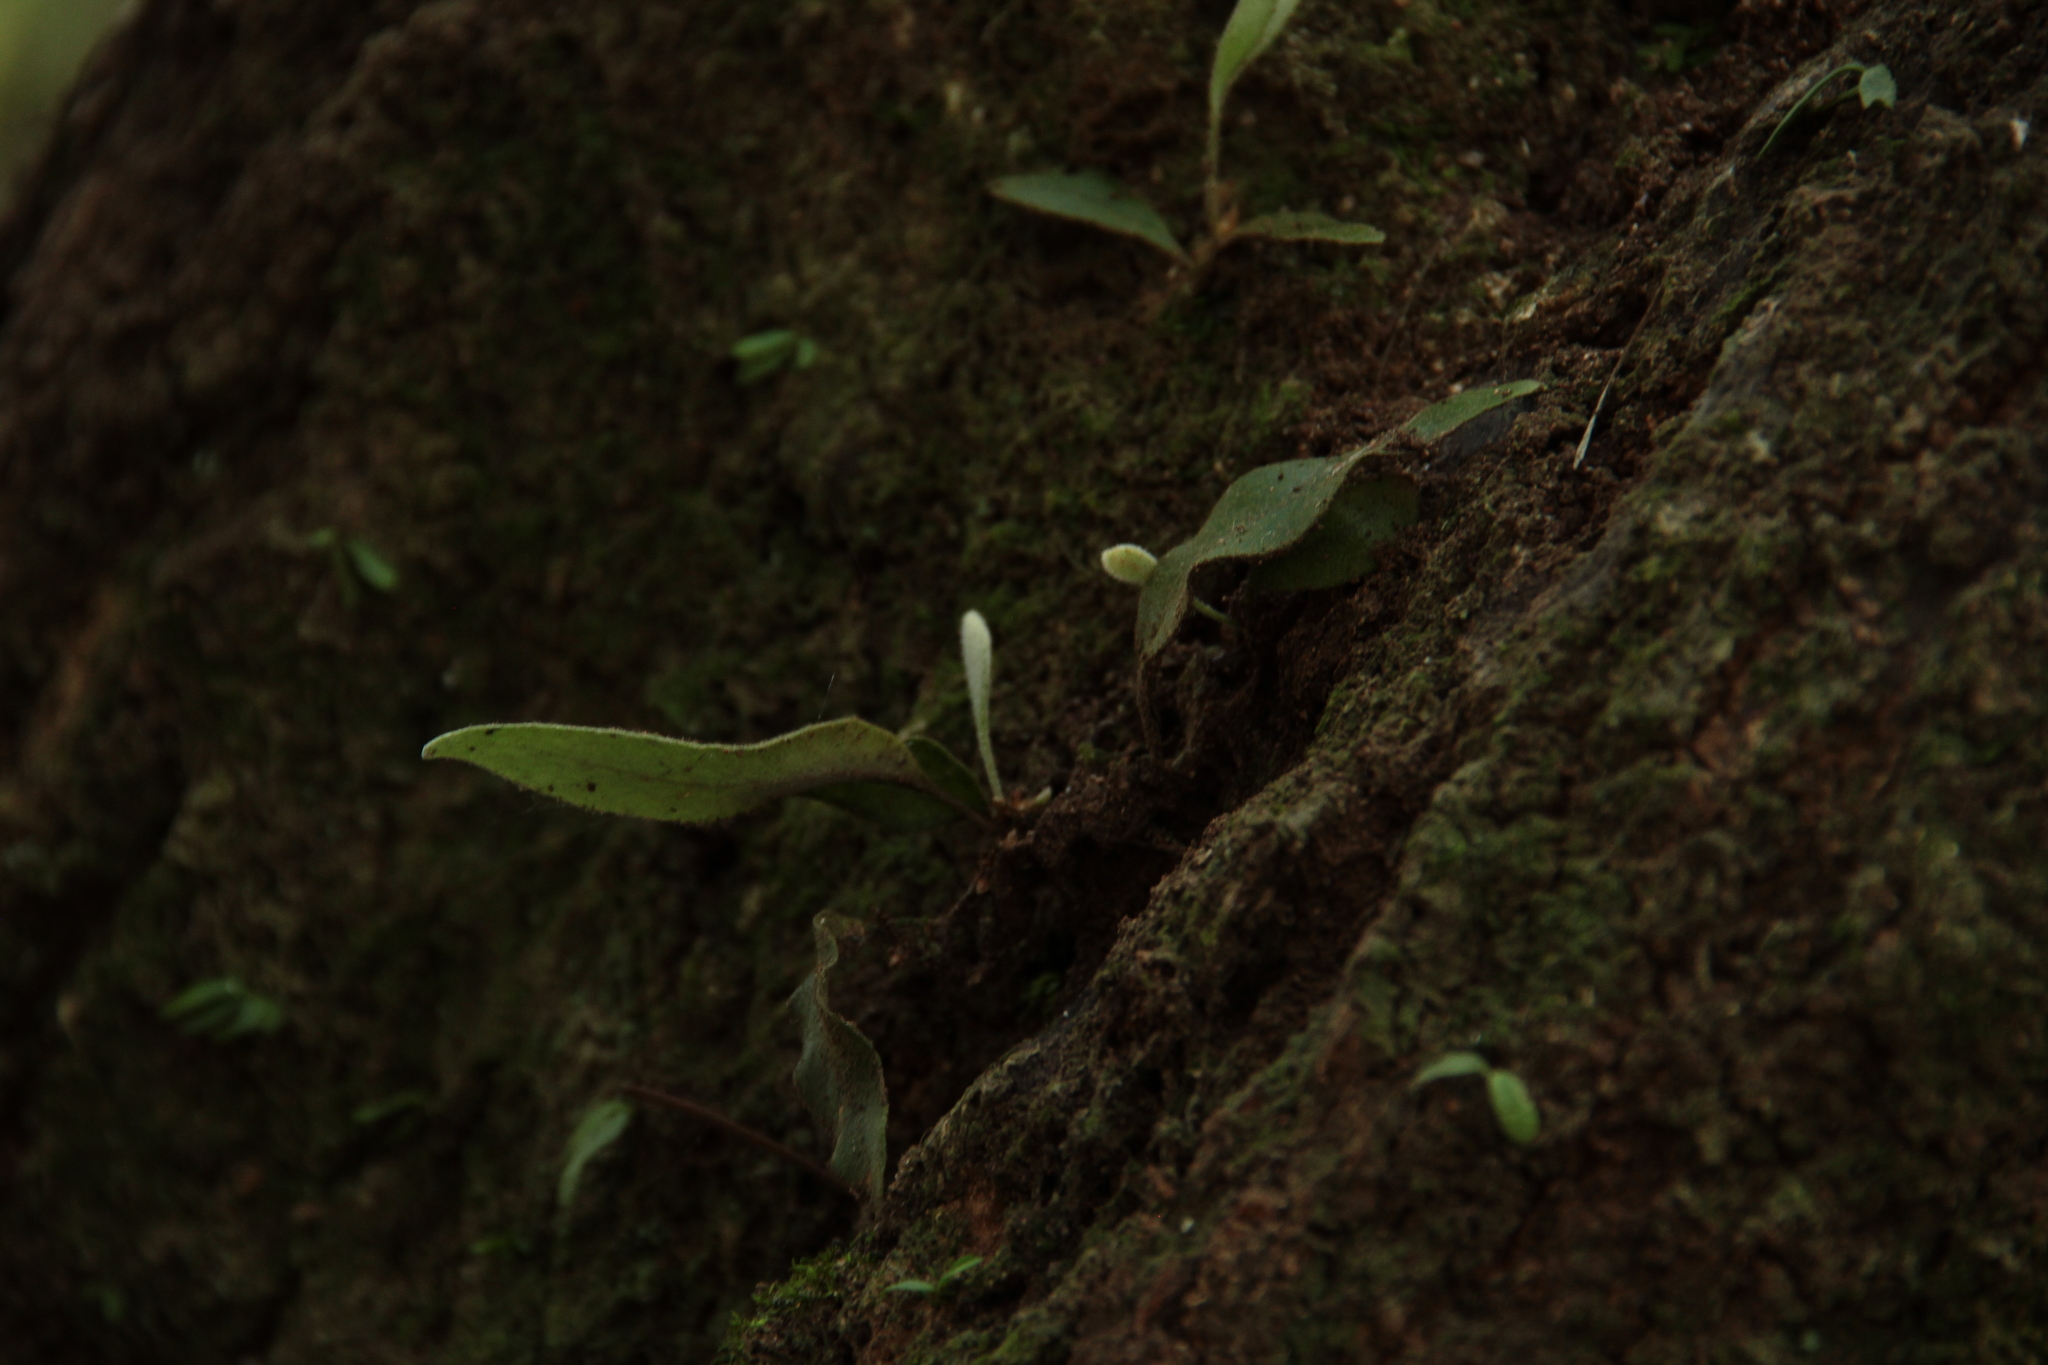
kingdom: Plantae
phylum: Tracheophyta
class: Polypodiopsida
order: Polypodiales
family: Polypodiaceae
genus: Pyrrosia
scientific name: Pyrrosia lingua
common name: Felt fern
